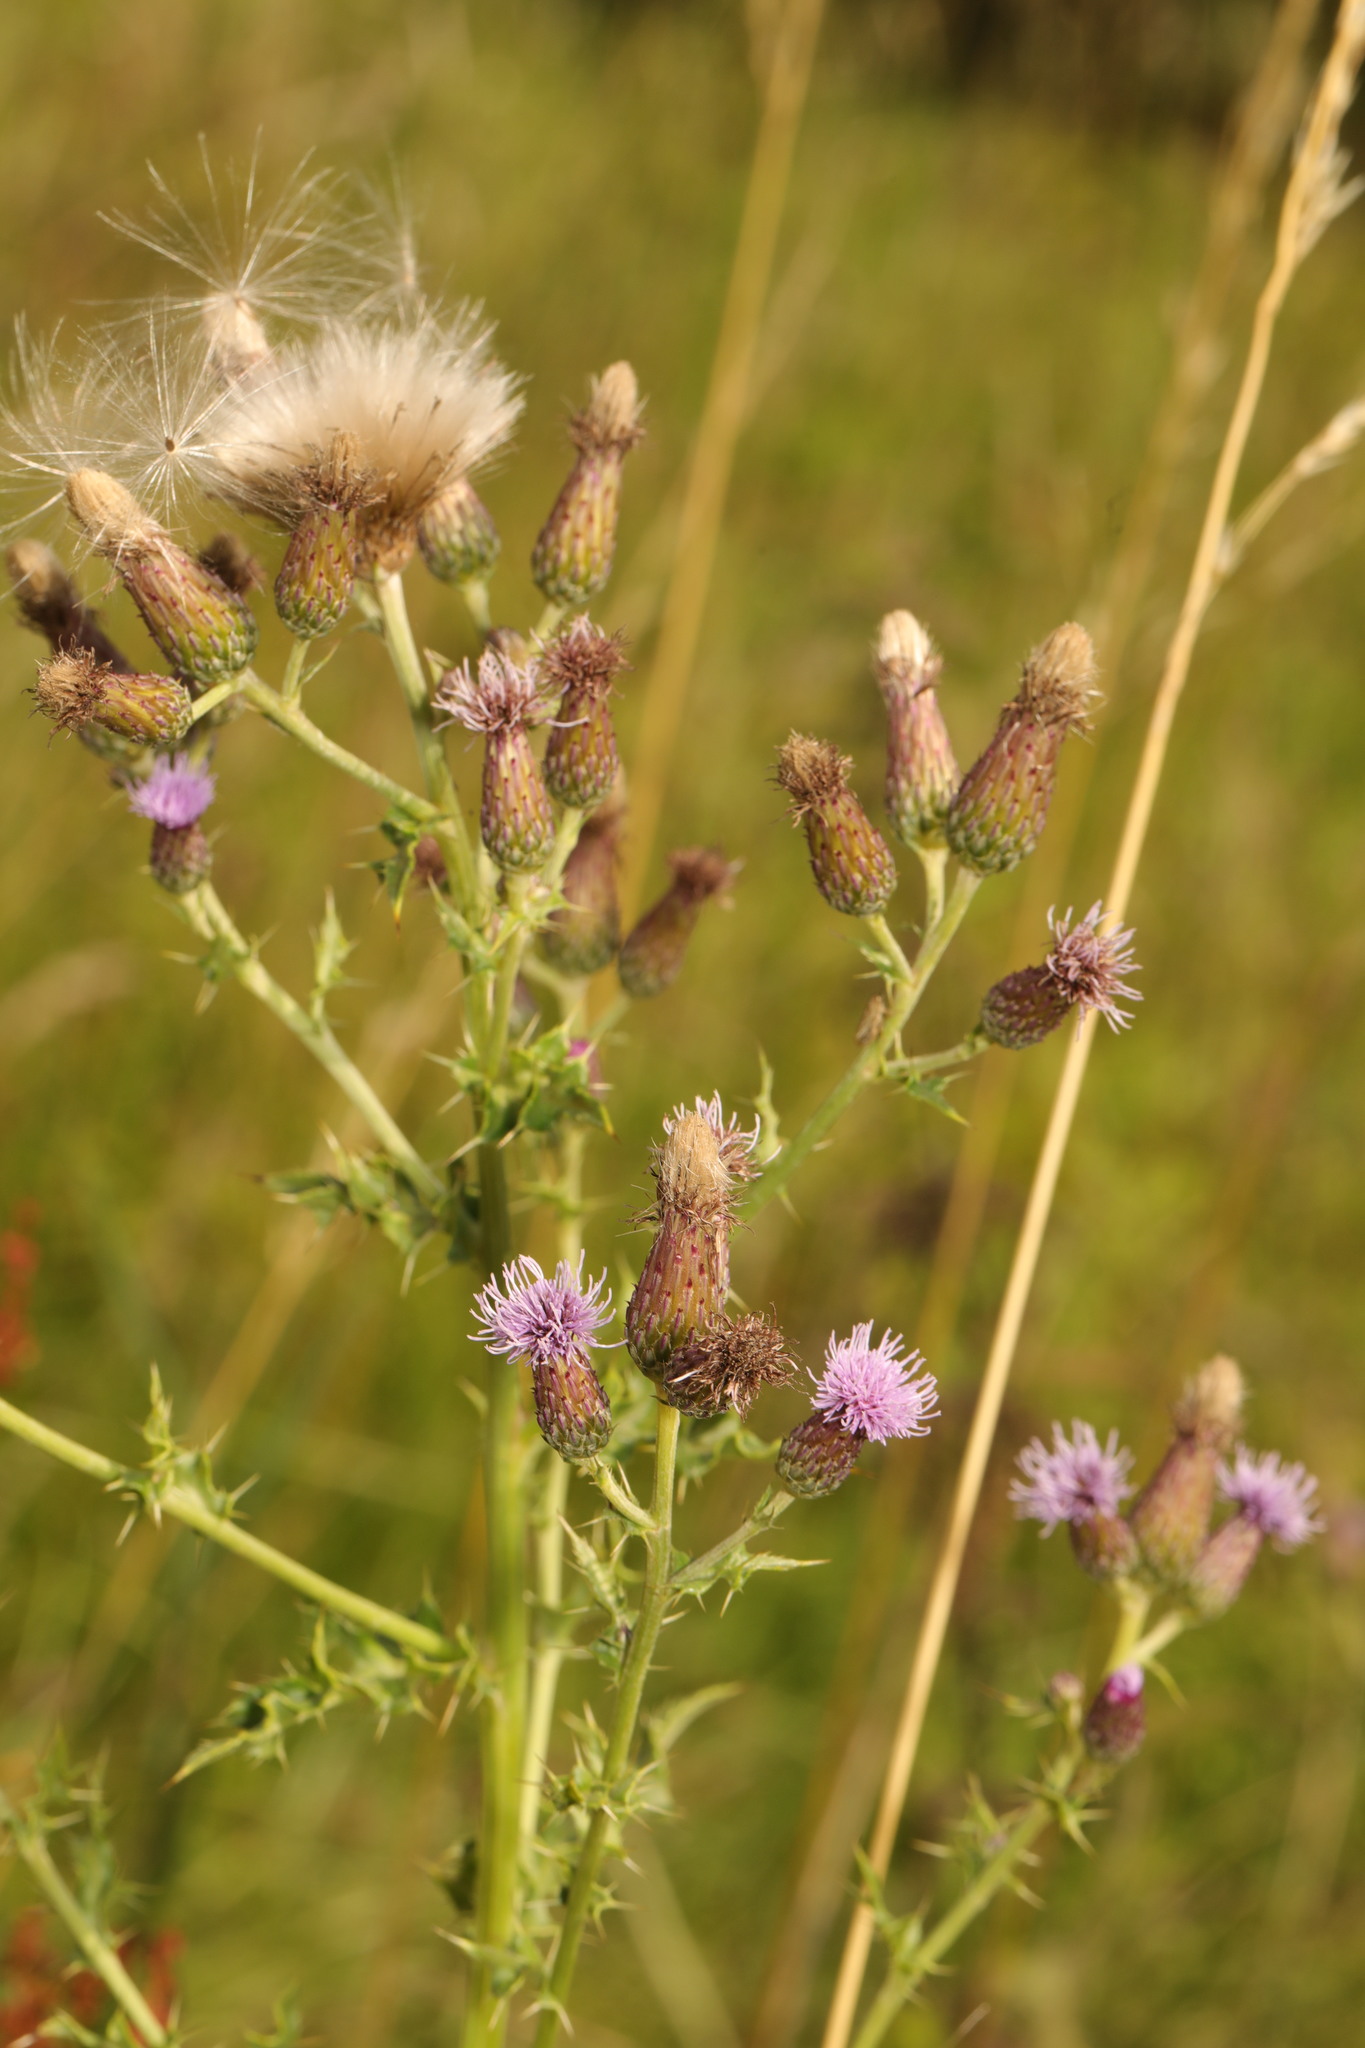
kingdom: Plantae
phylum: Tracheophyta
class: Magnoliopsida
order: Asterales
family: Asteraceae
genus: Cirsium
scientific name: Cirsium arvense
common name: Creeping thistle
